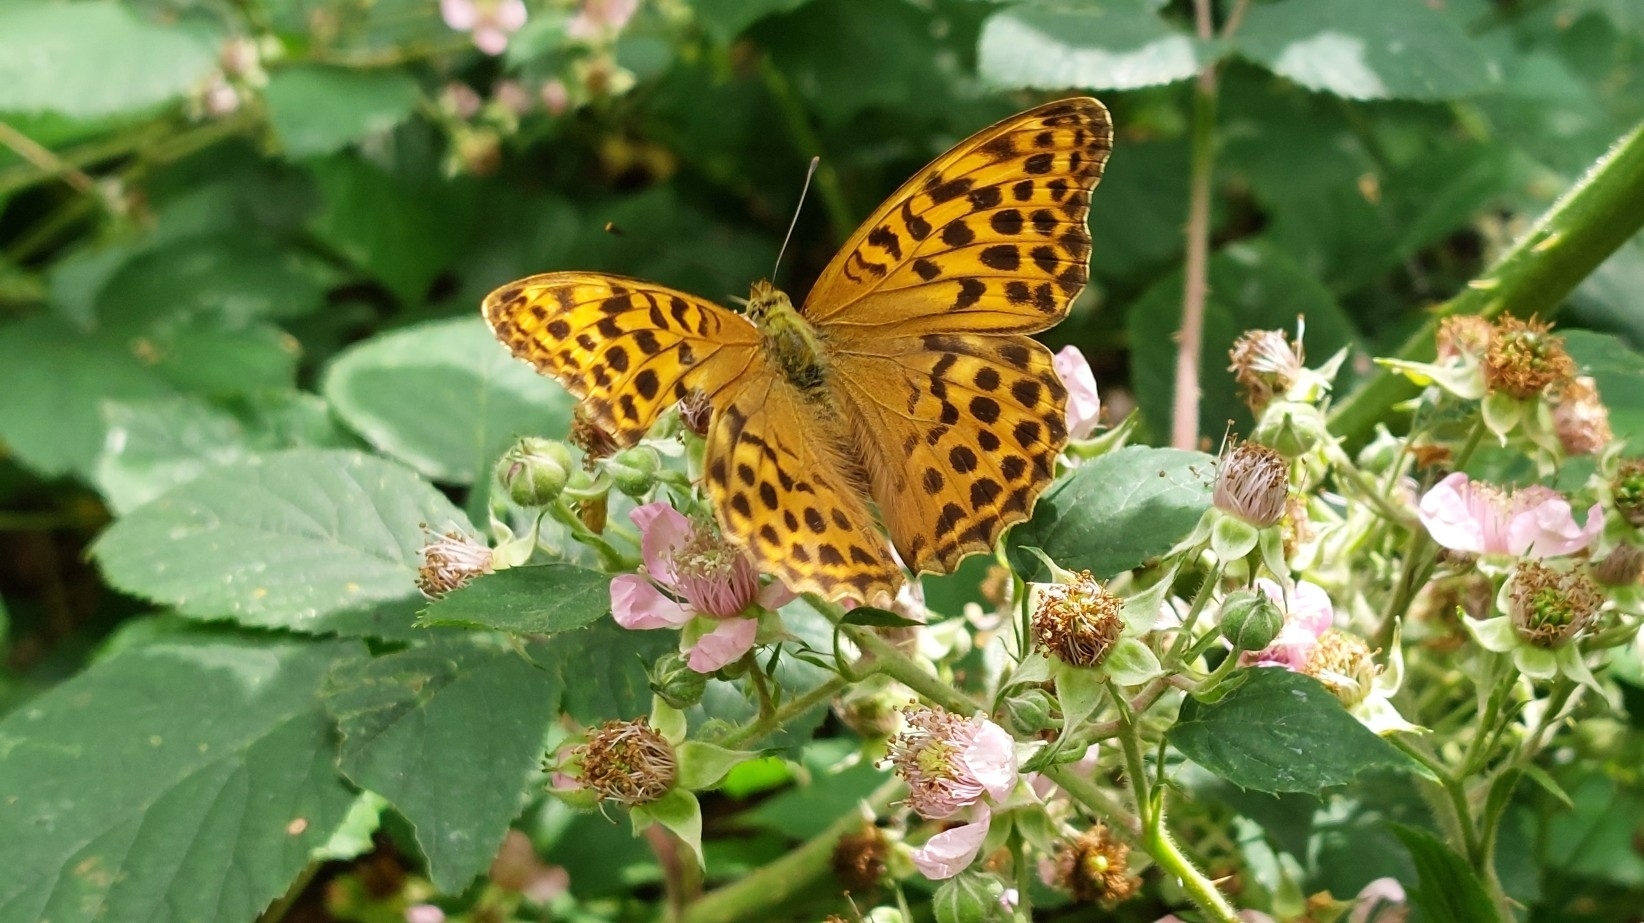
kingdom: Animalia
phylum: Arthropoda
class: Insecta
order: Lepidoptera
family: Nymphalidae
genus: Argynnis
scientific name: Argynnis paphia
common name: Silver-washed fritillary
